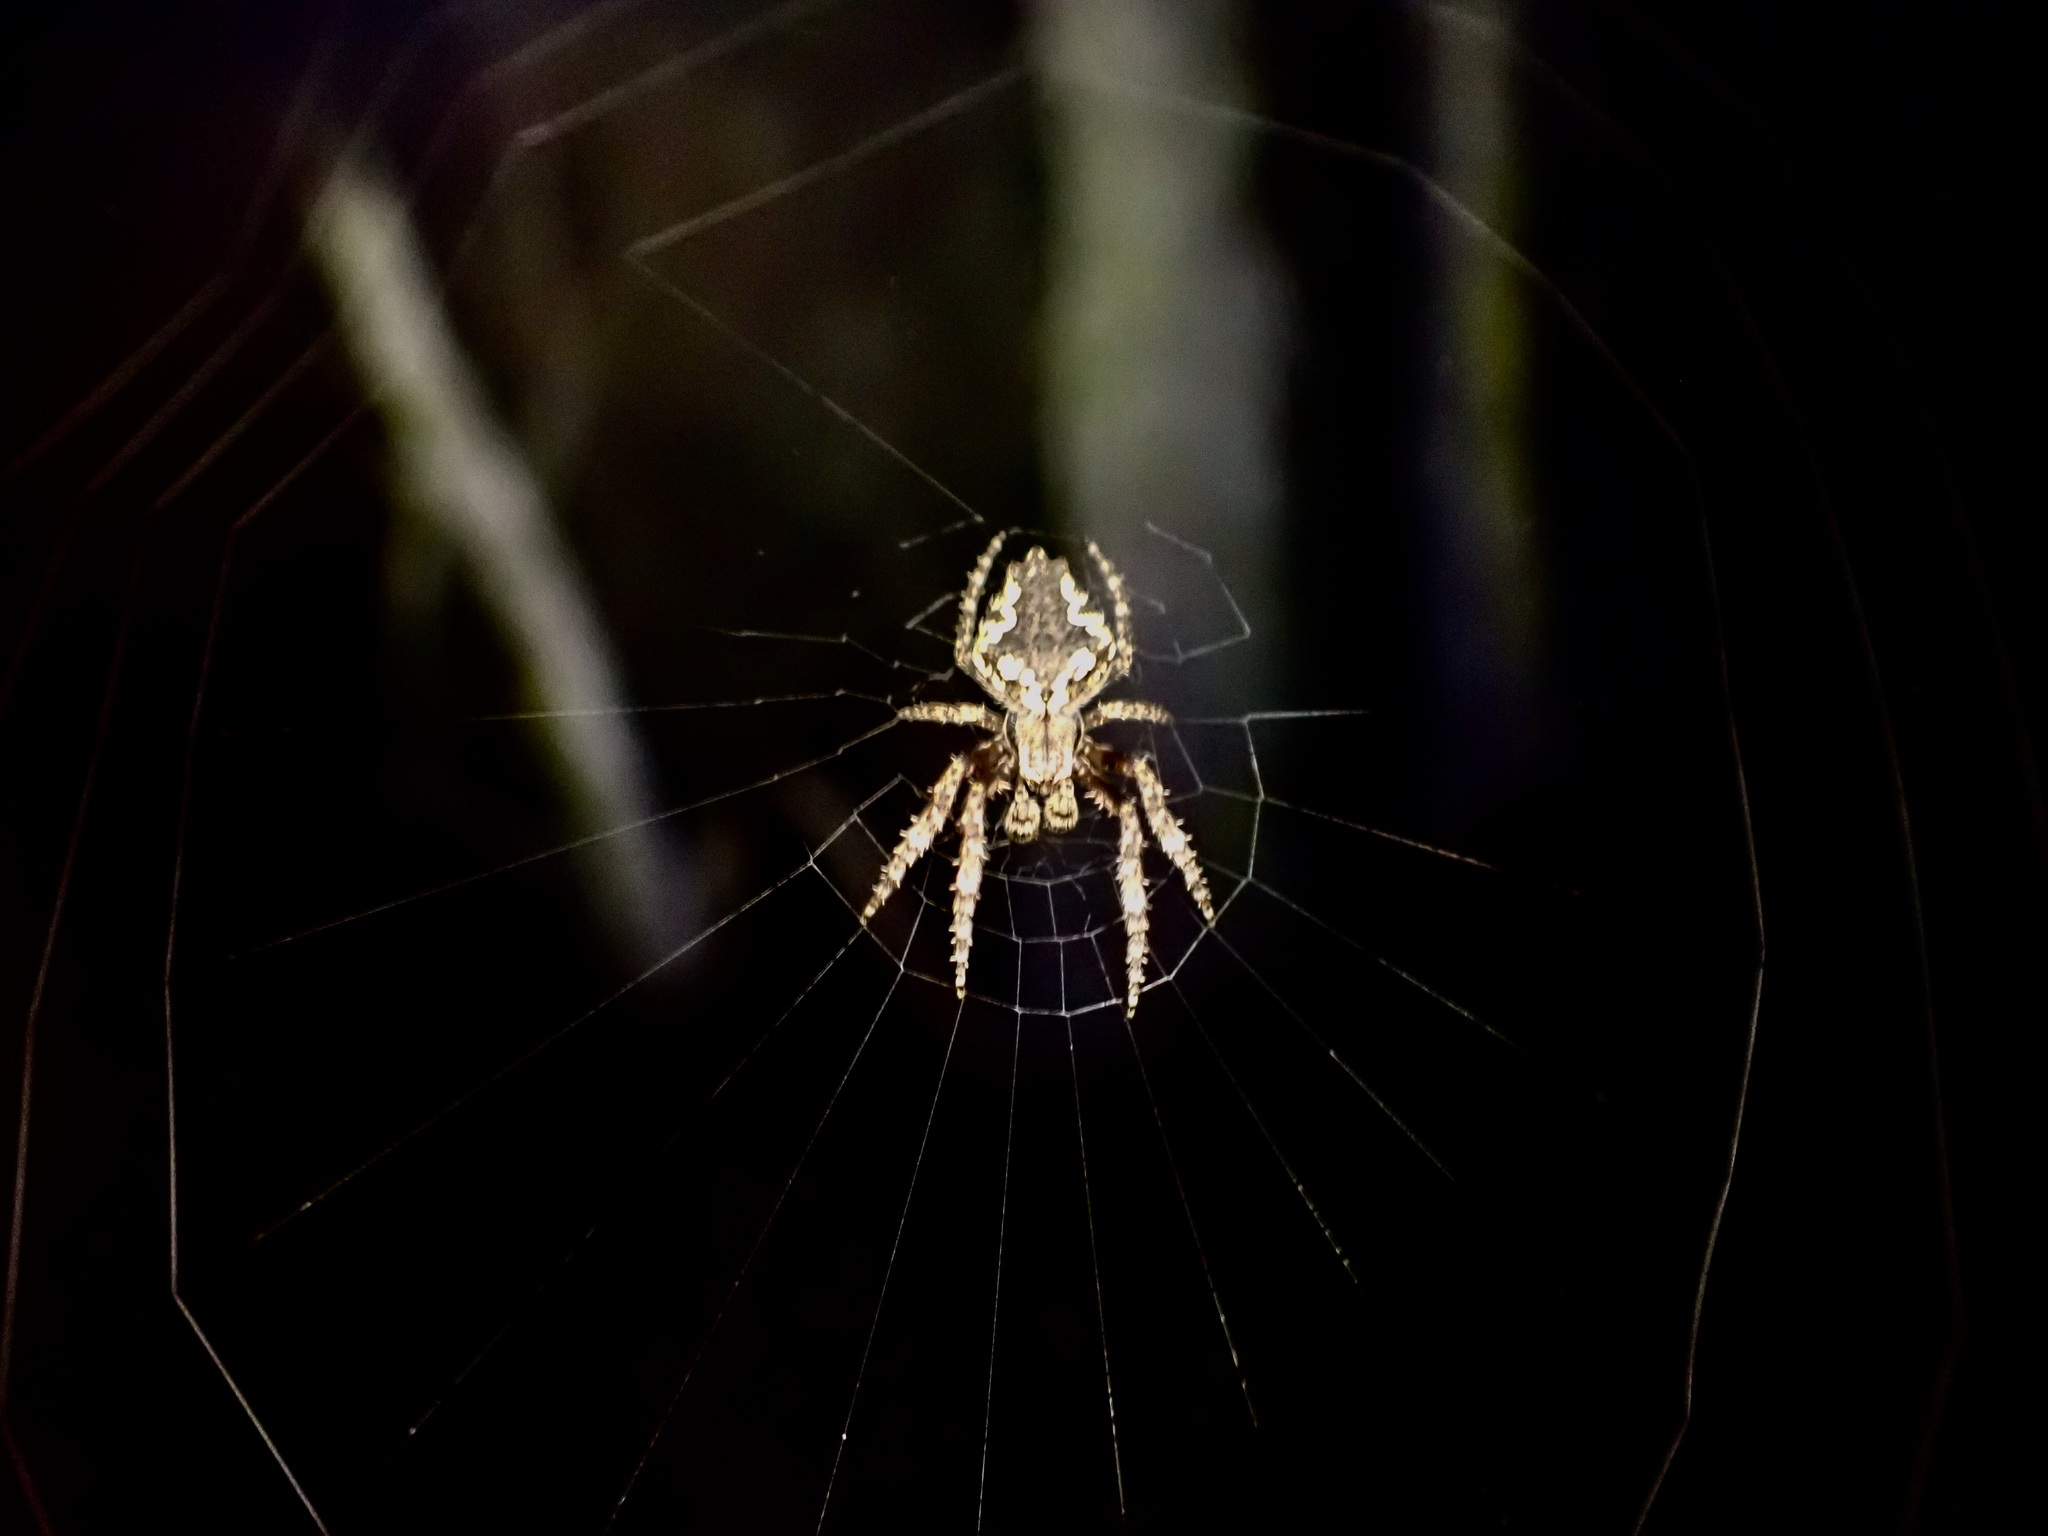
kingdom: Animalia
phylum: Arthropoda
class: Arachnida
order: Araneae
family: Araneidae
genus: Eriophora
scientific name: Eriophora pustulosa
